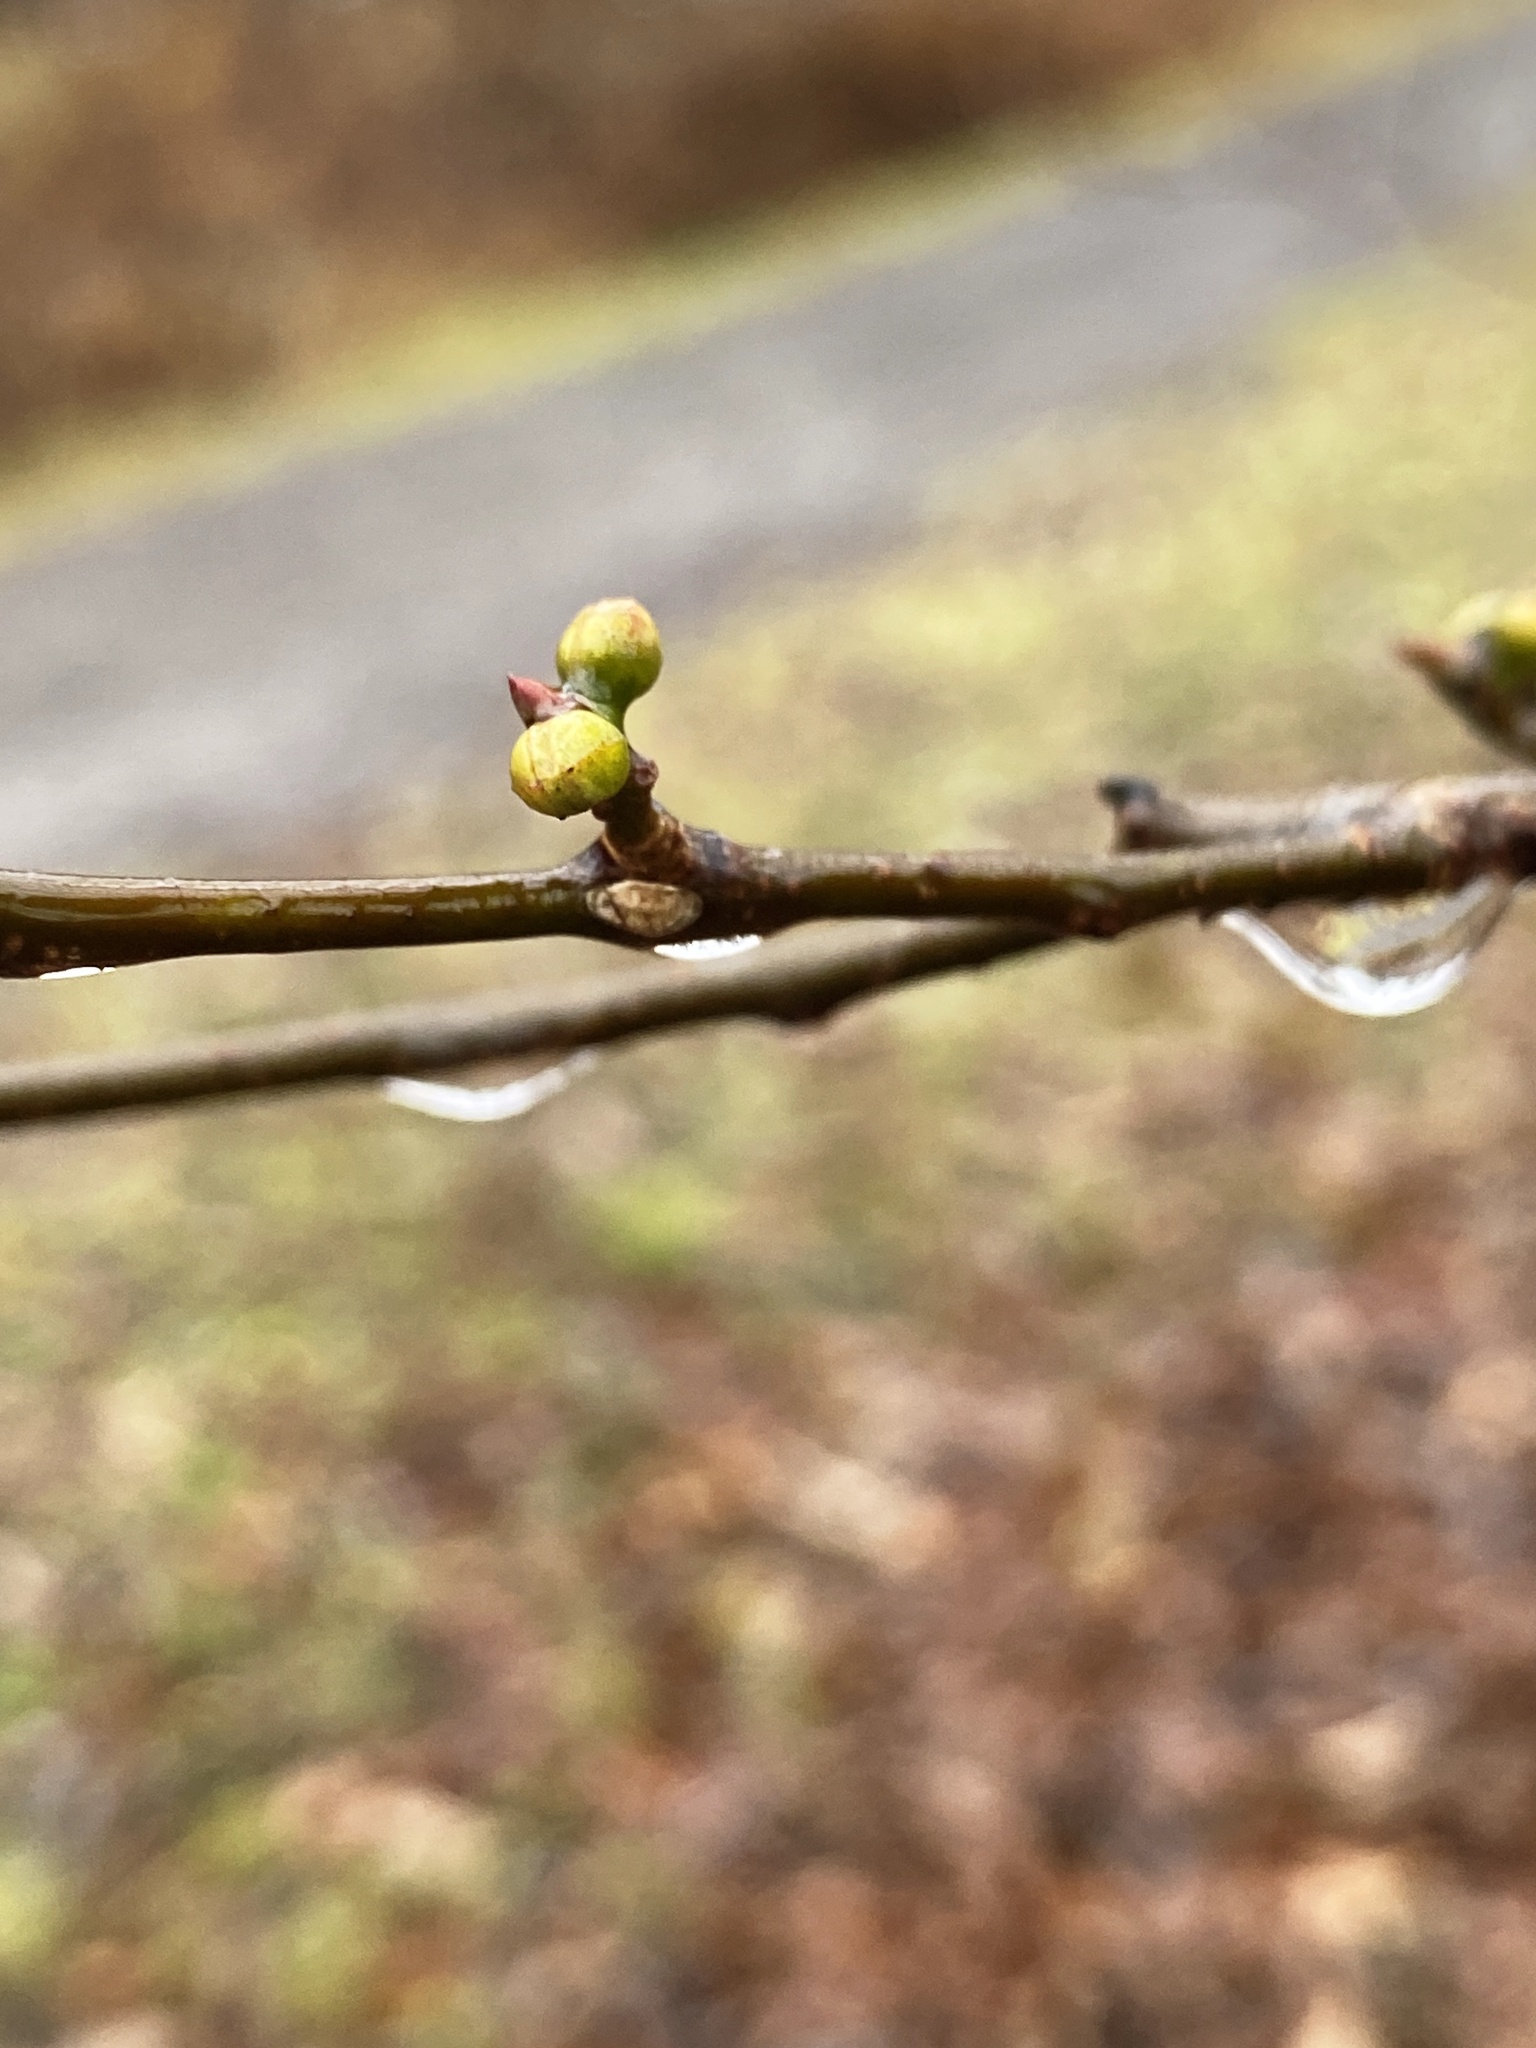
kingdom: Plantae
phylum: Tracheophyta
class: Magnoliopsida
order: Laurales
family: Lauraceae
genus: Lindera
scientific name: Lindera benzoin
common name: Spicebush
